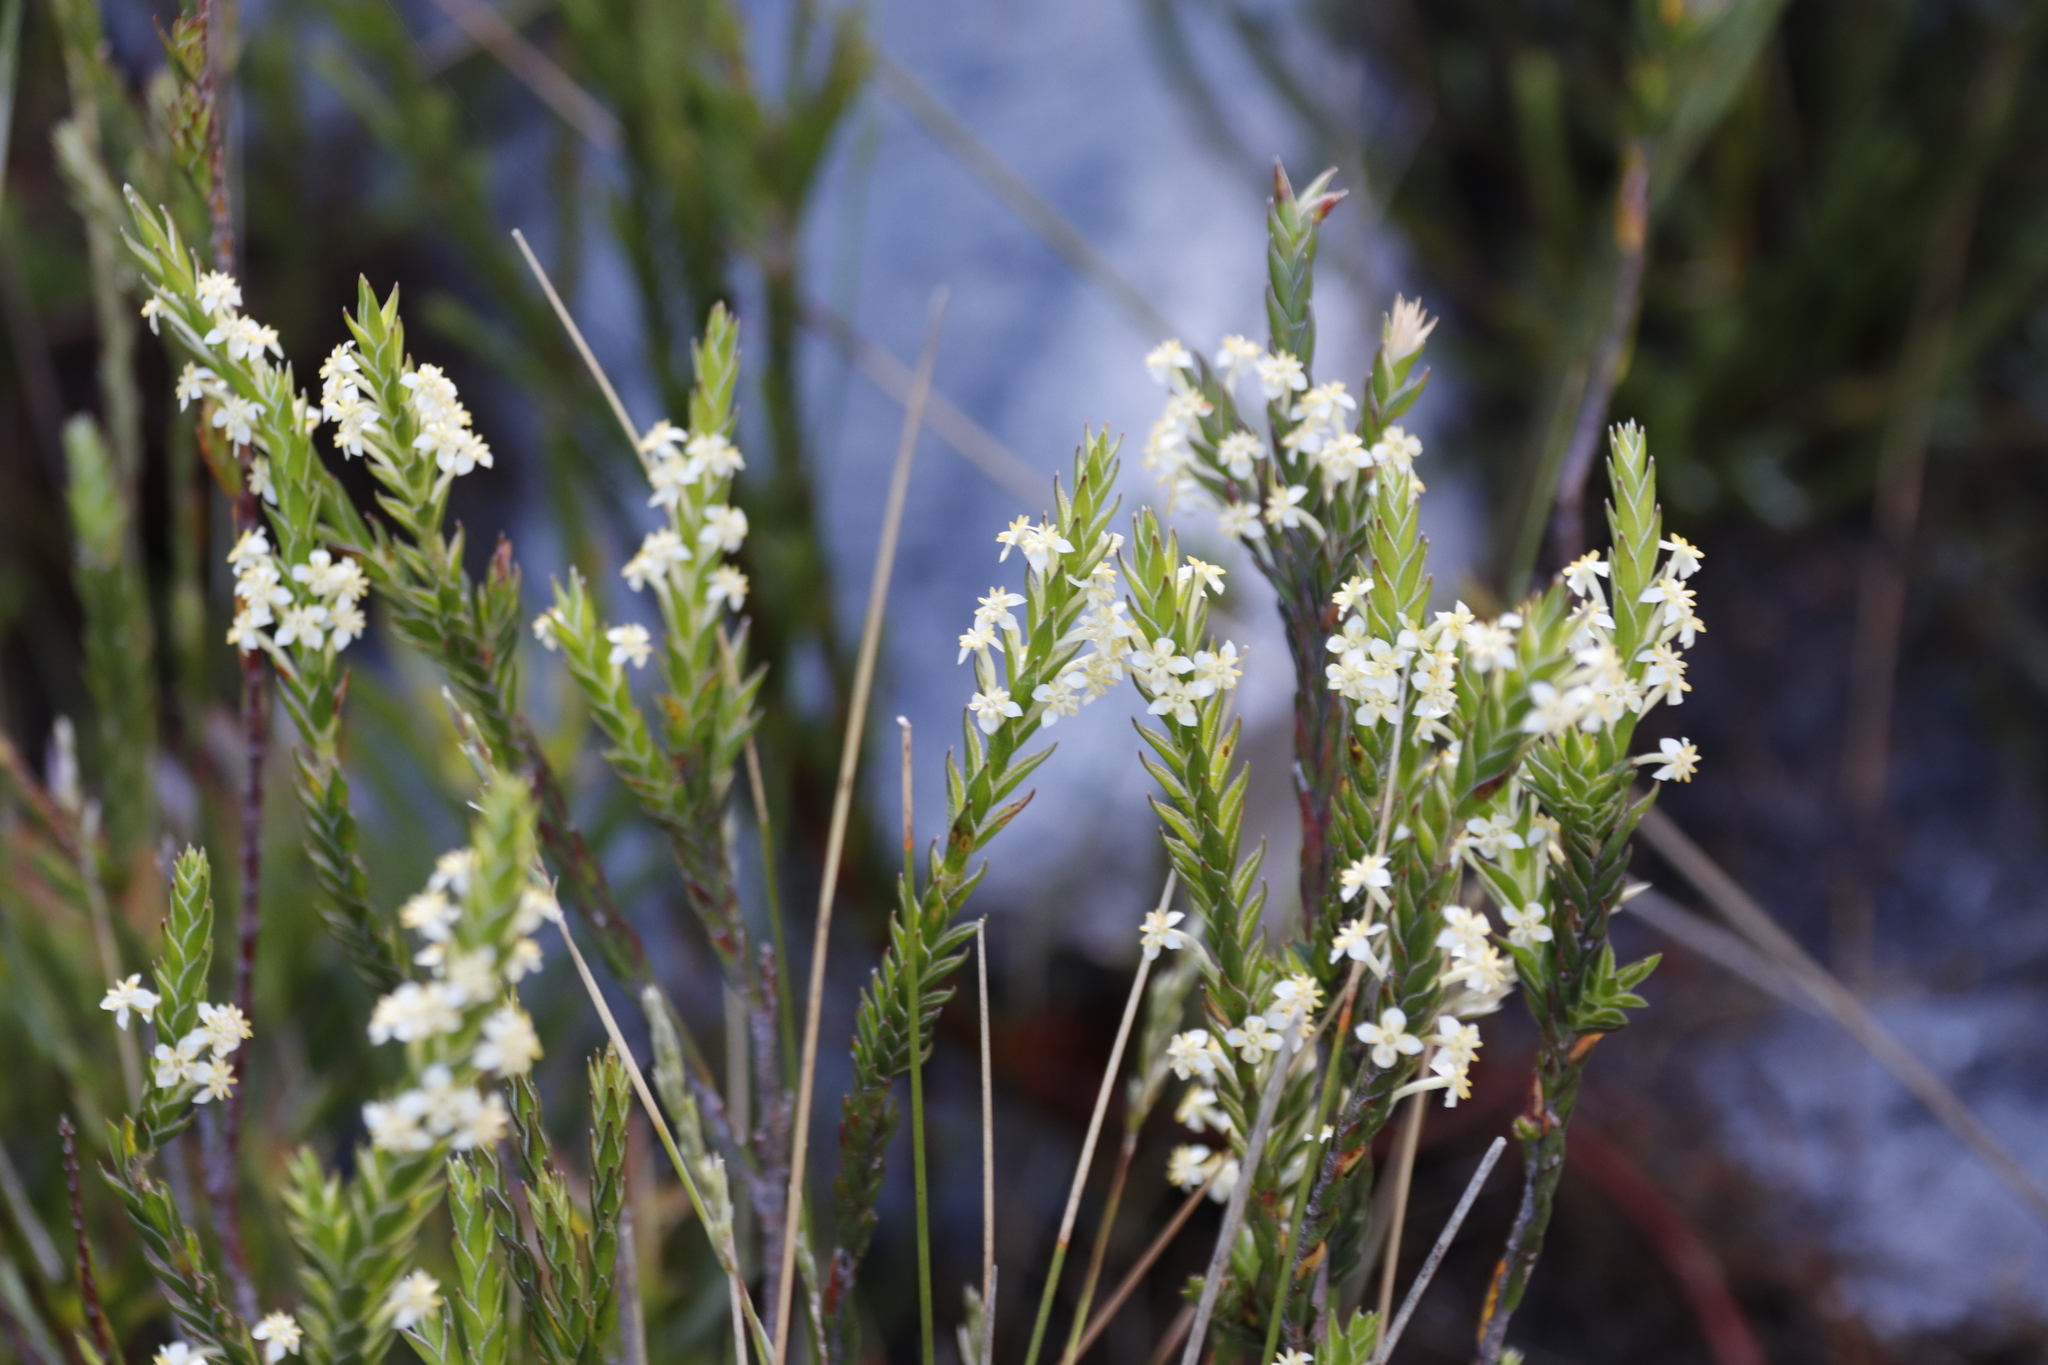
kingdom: Plantae
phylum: Tracheophyta
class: Magnoliopsida
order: Malvales
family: Thymelaeaceae
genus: Struthiola
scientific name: Struthiola ciliata
